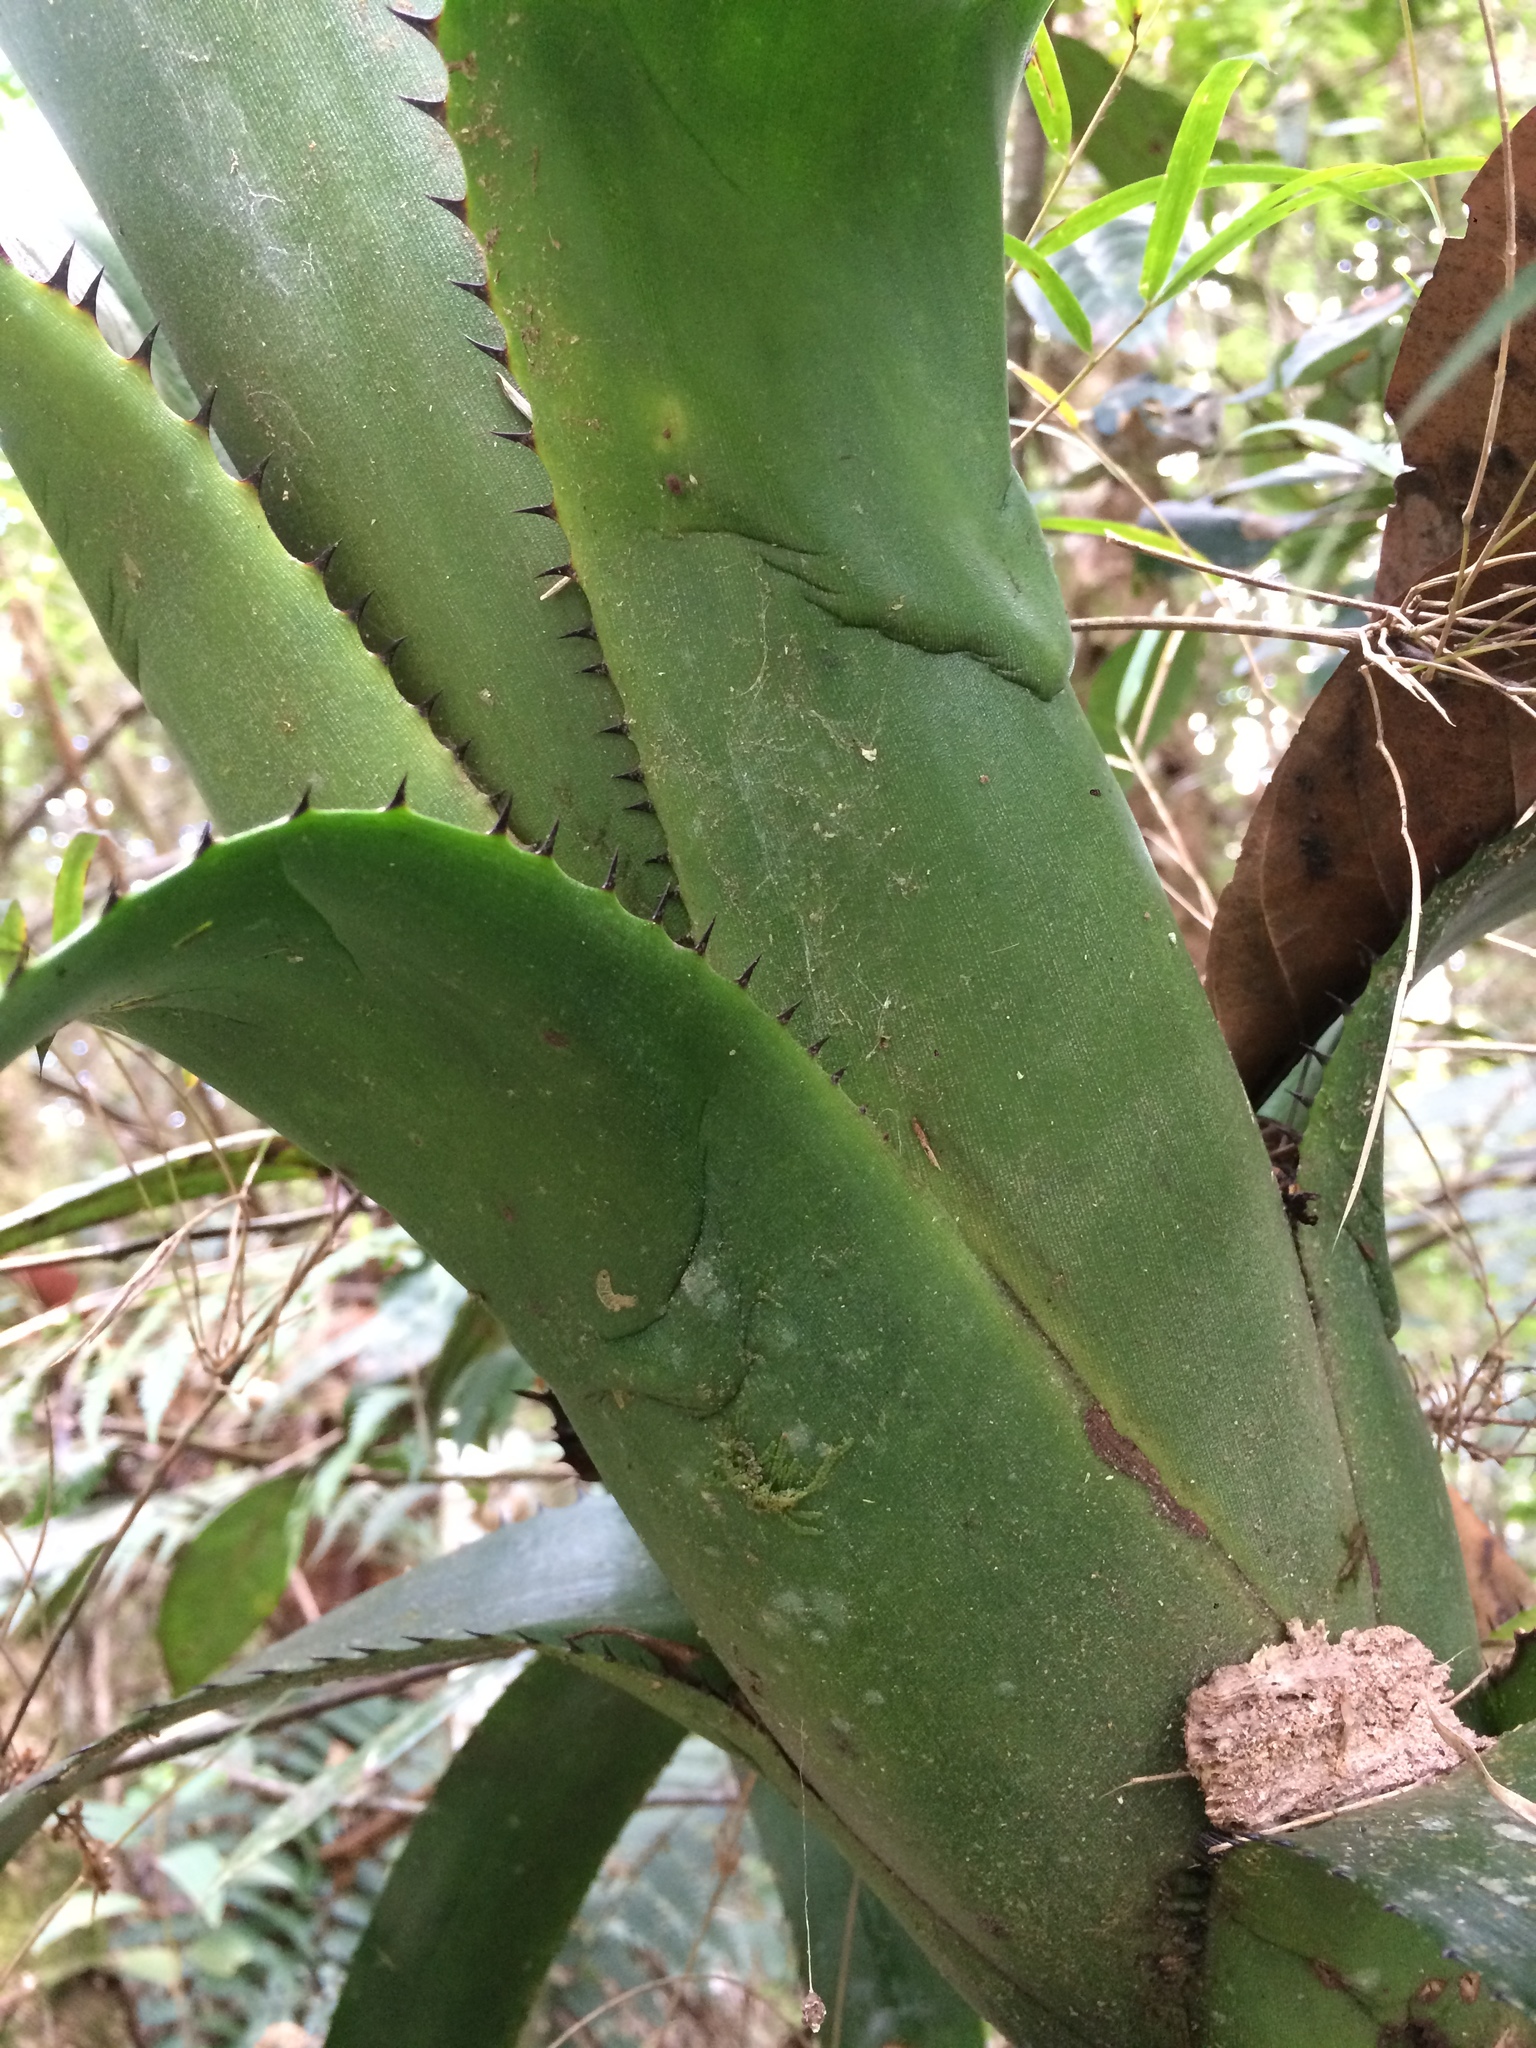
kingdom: Plantae
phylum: Tracheophyta
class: Liliopsida
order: Poales
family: Bromeliaceae
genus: Billbergia
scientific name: Billbergia alfonsi-joannis
